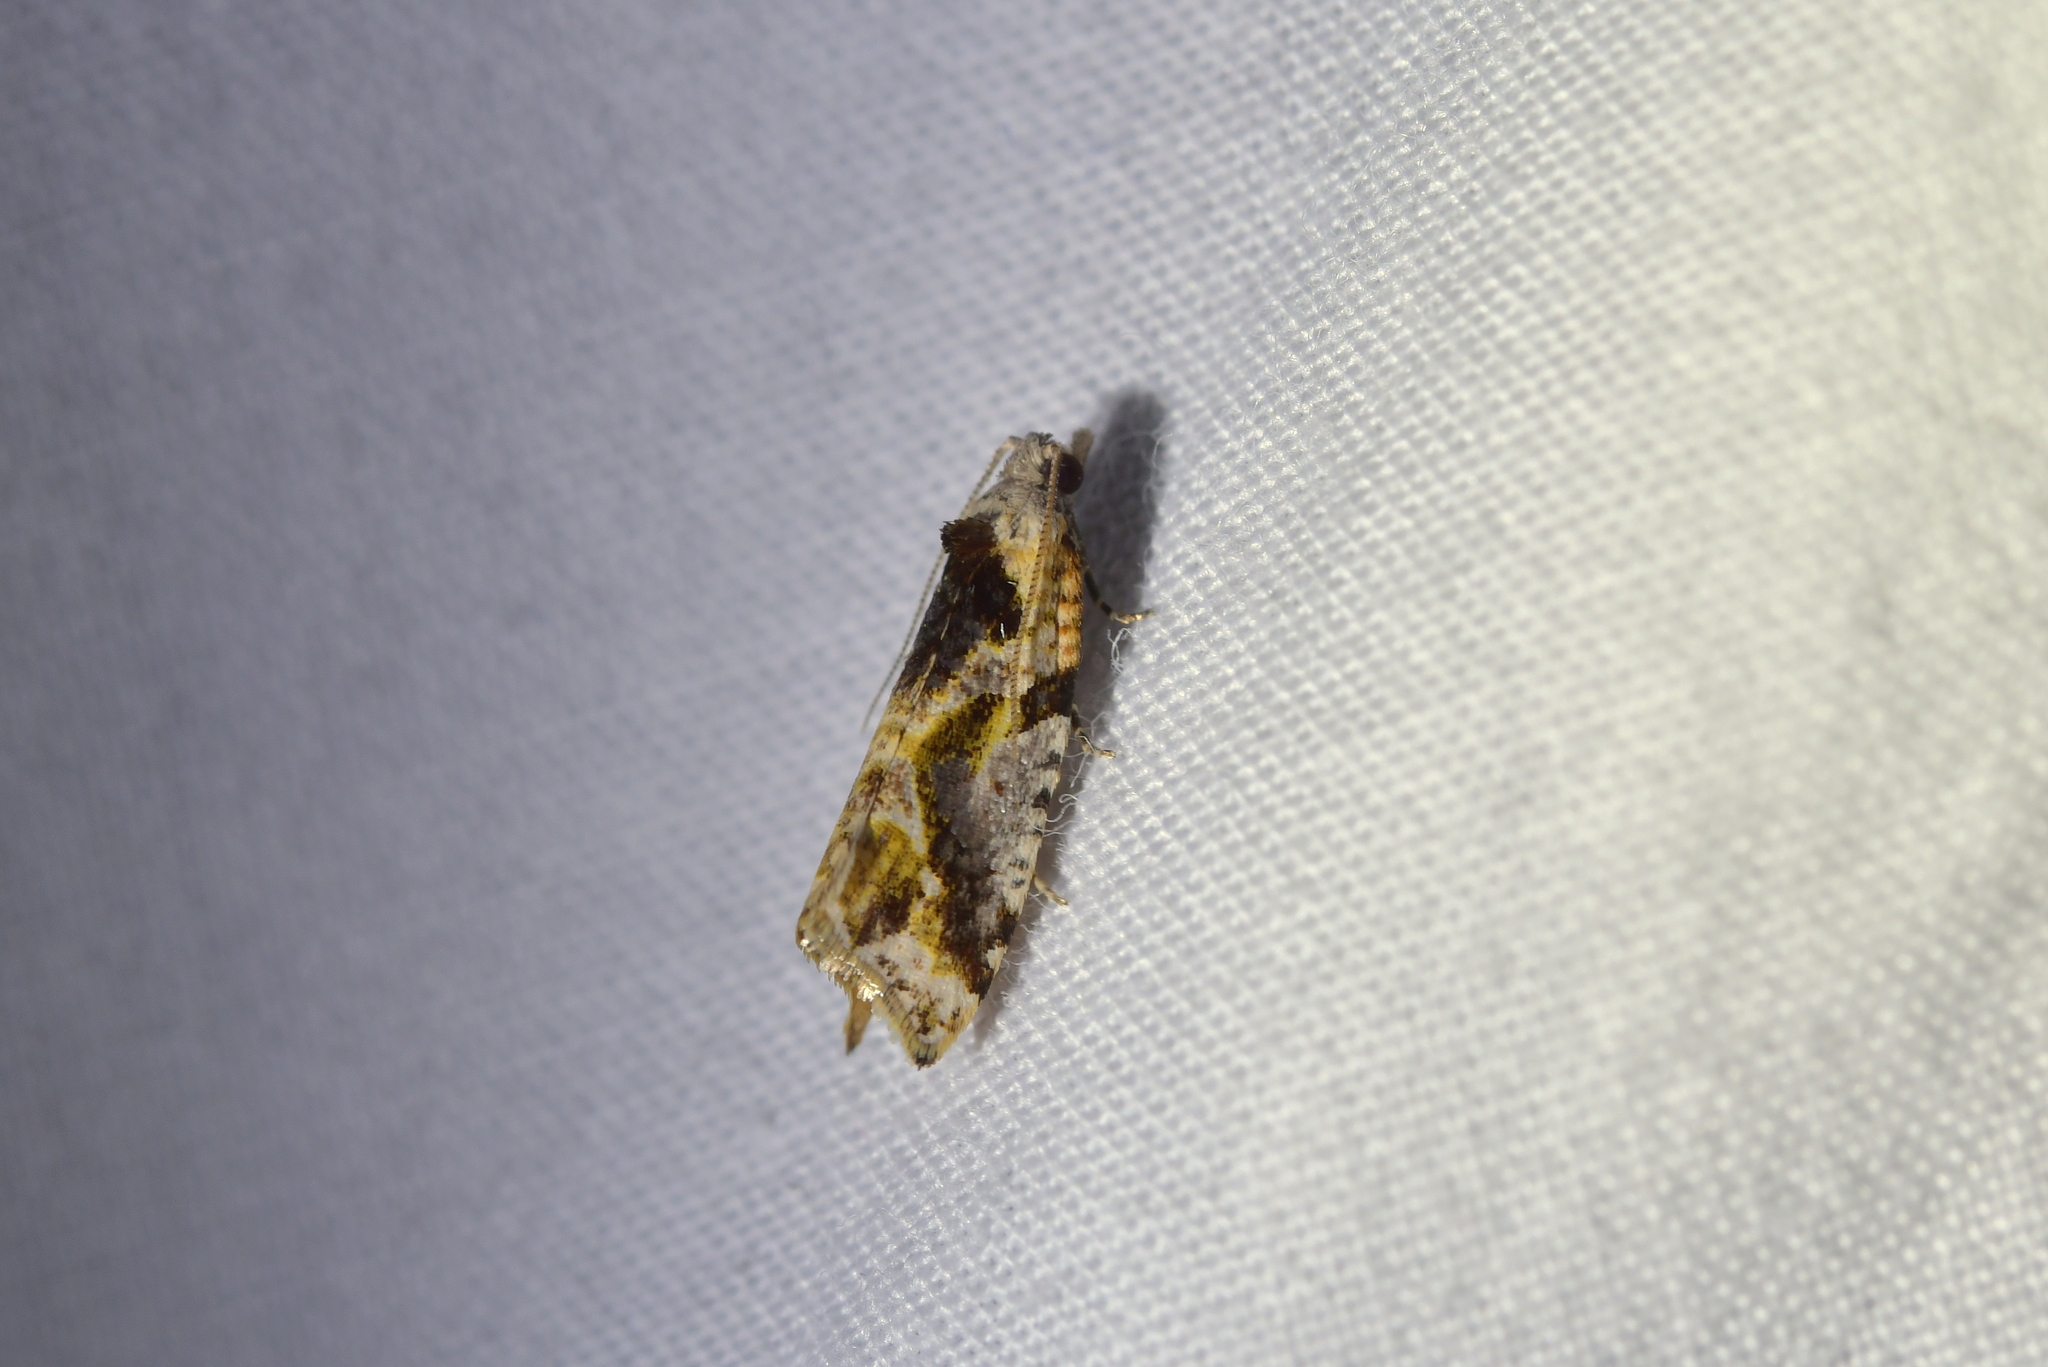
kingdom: Animalia
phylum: Arthropoda
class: Insecta
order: Lepidoptera
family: Tortricidae
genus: Pyrgotis
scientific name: Pyrgotis plagiatana
